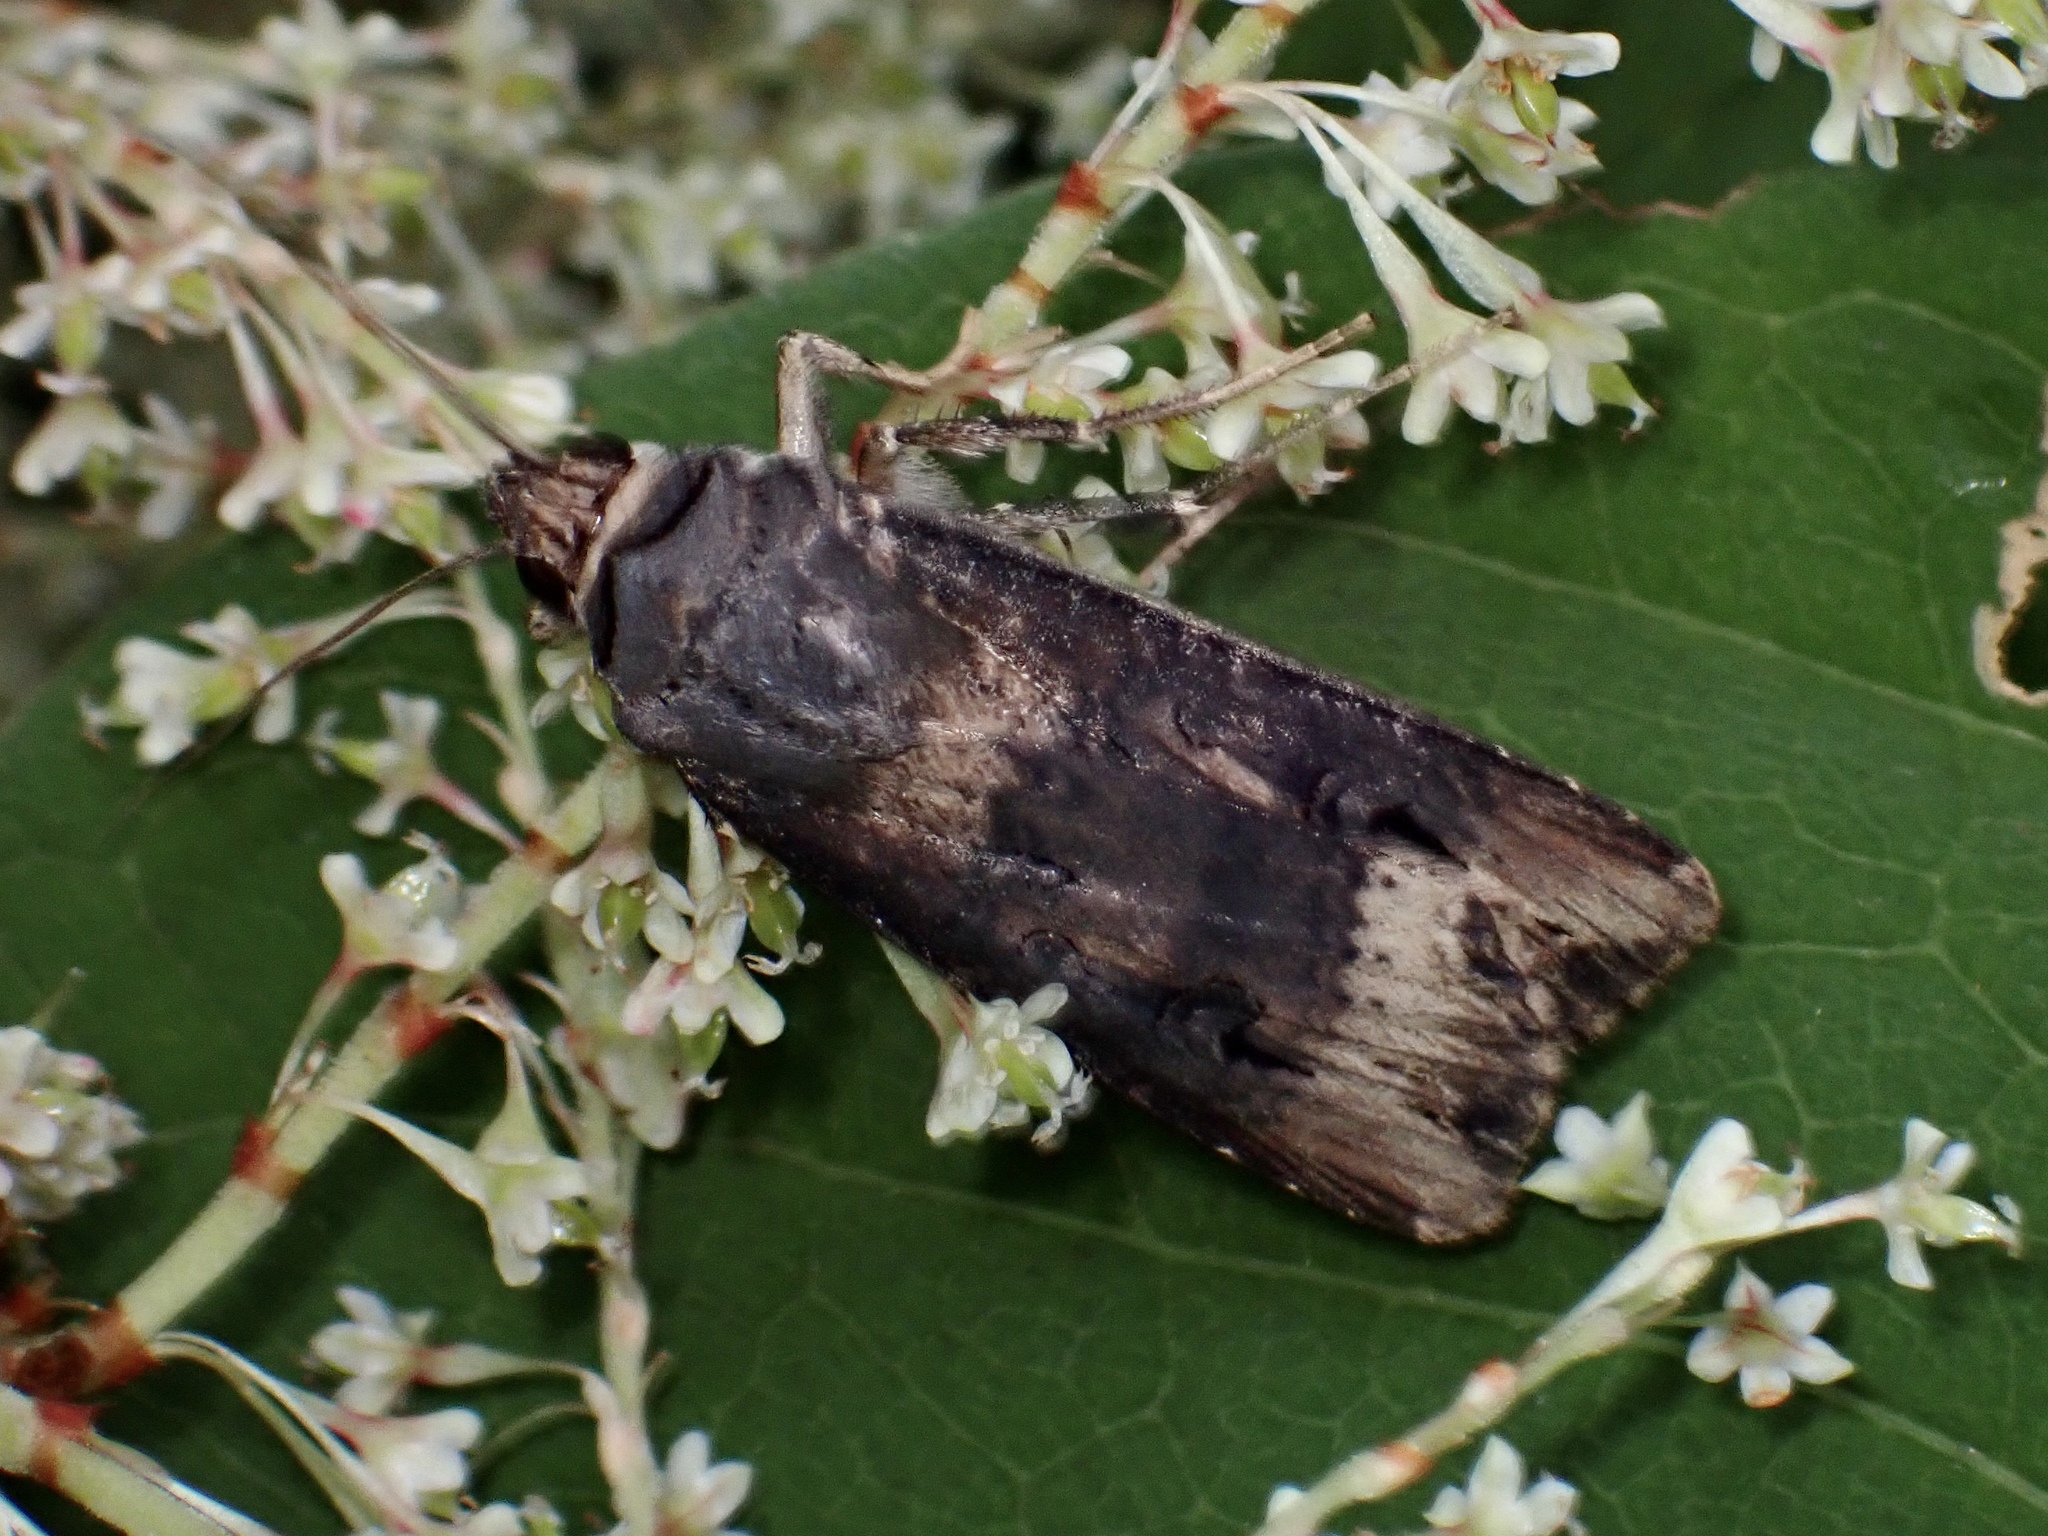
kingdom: Animalia
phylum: Arthropoda
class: Insecta
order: Lepidoptera
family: Noctuidae
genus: Agrotis
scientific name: Agrotis ipsilon
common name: Dark sword-grass
